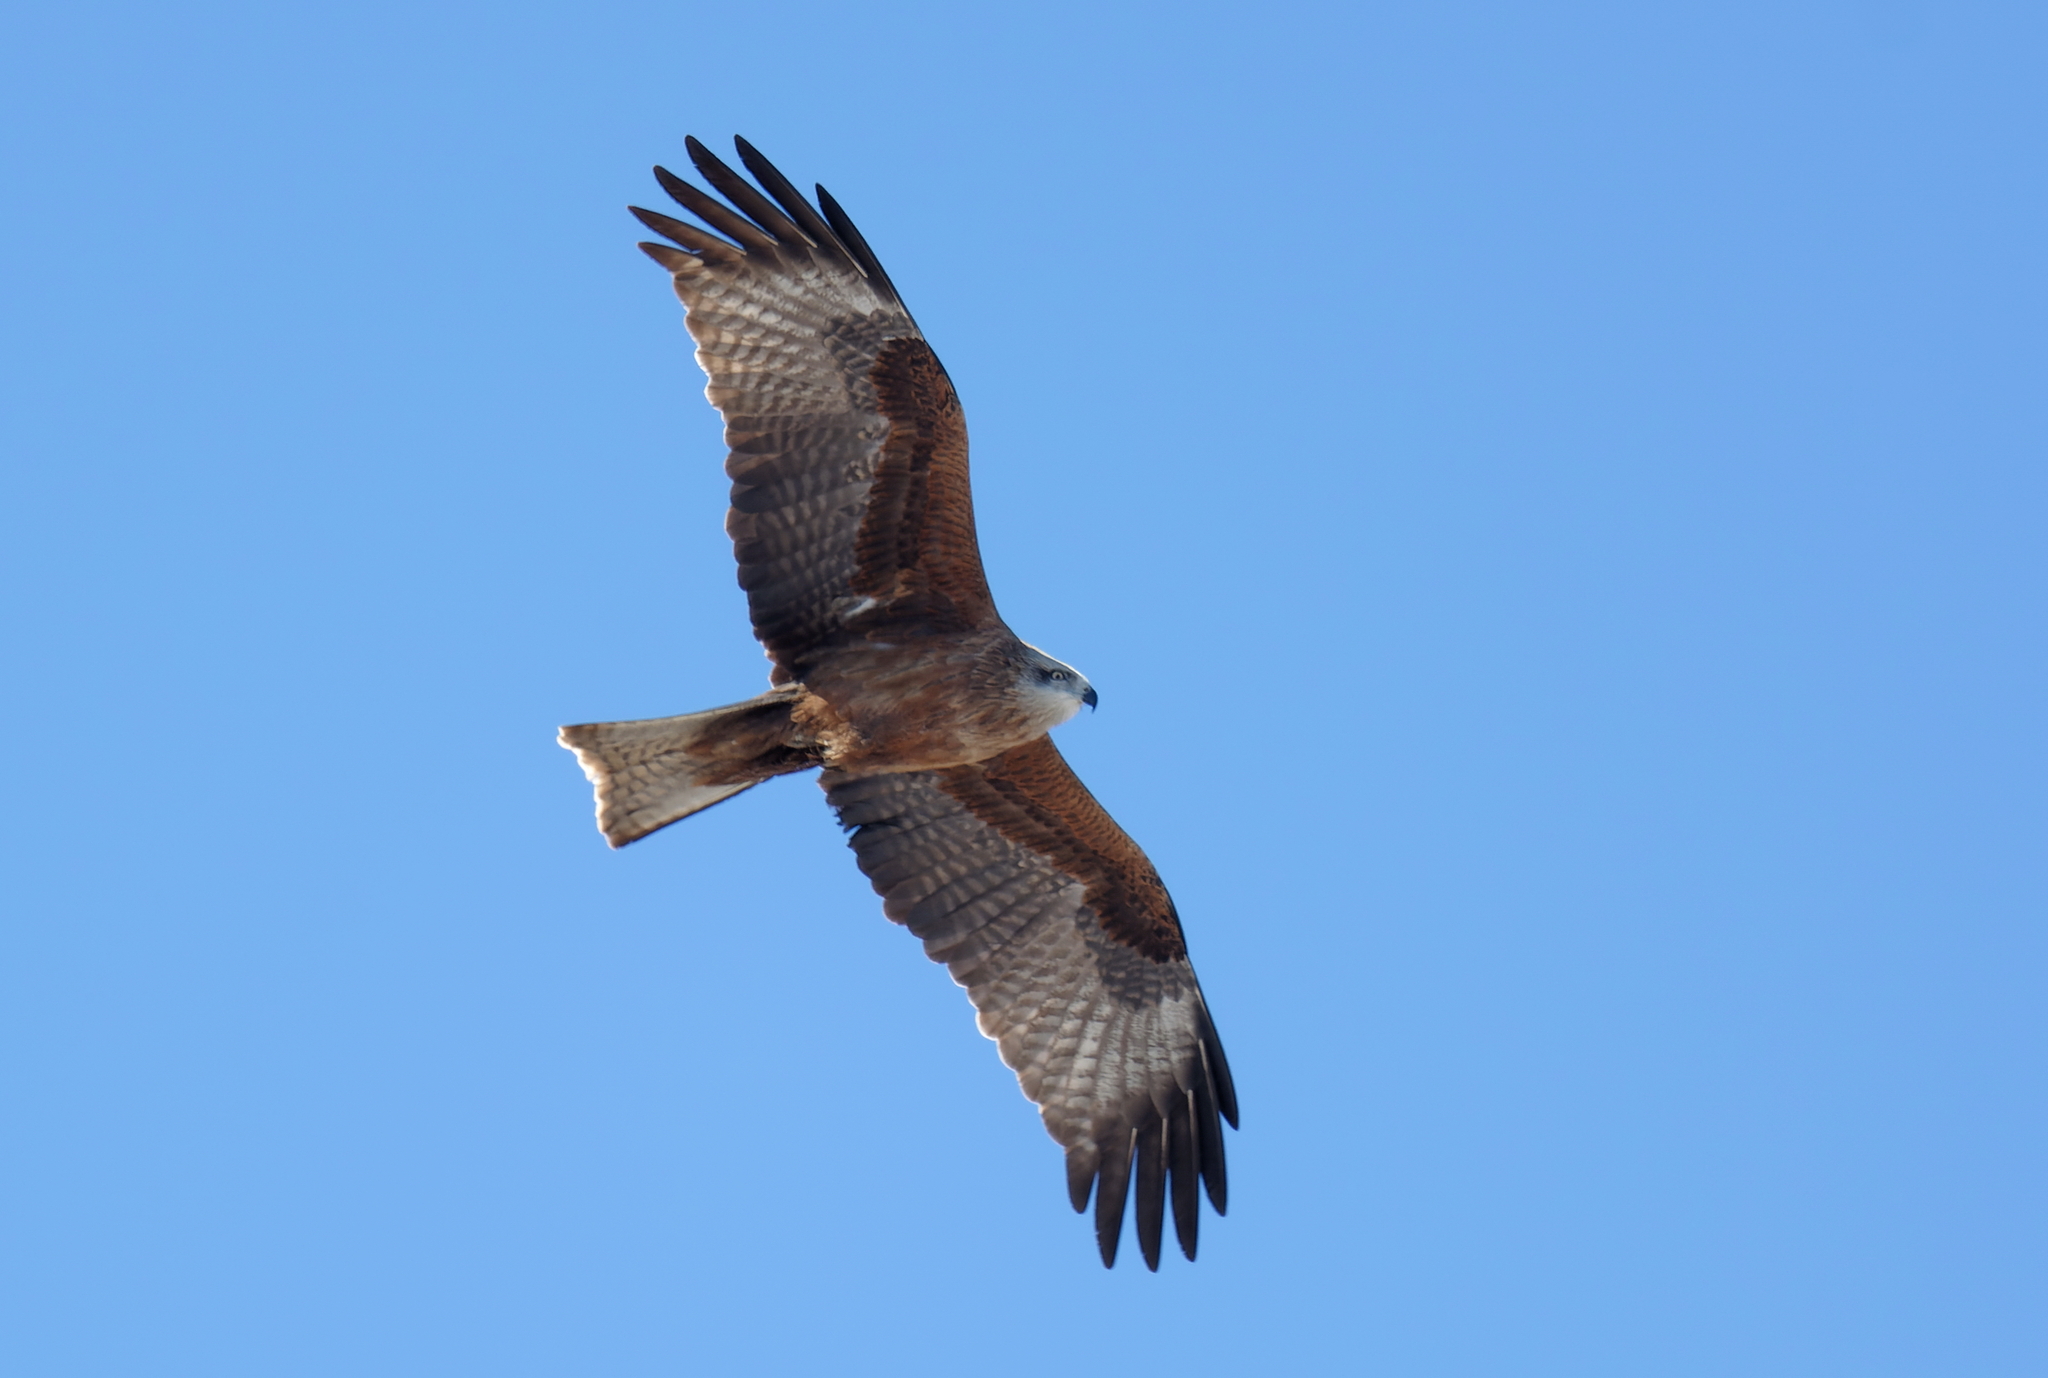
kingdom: Animalia
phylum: Chordata
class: Aves
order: Accipitriformes
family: Accipitridae
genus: Milvus
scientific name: Milvus migrans
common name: Black kite
